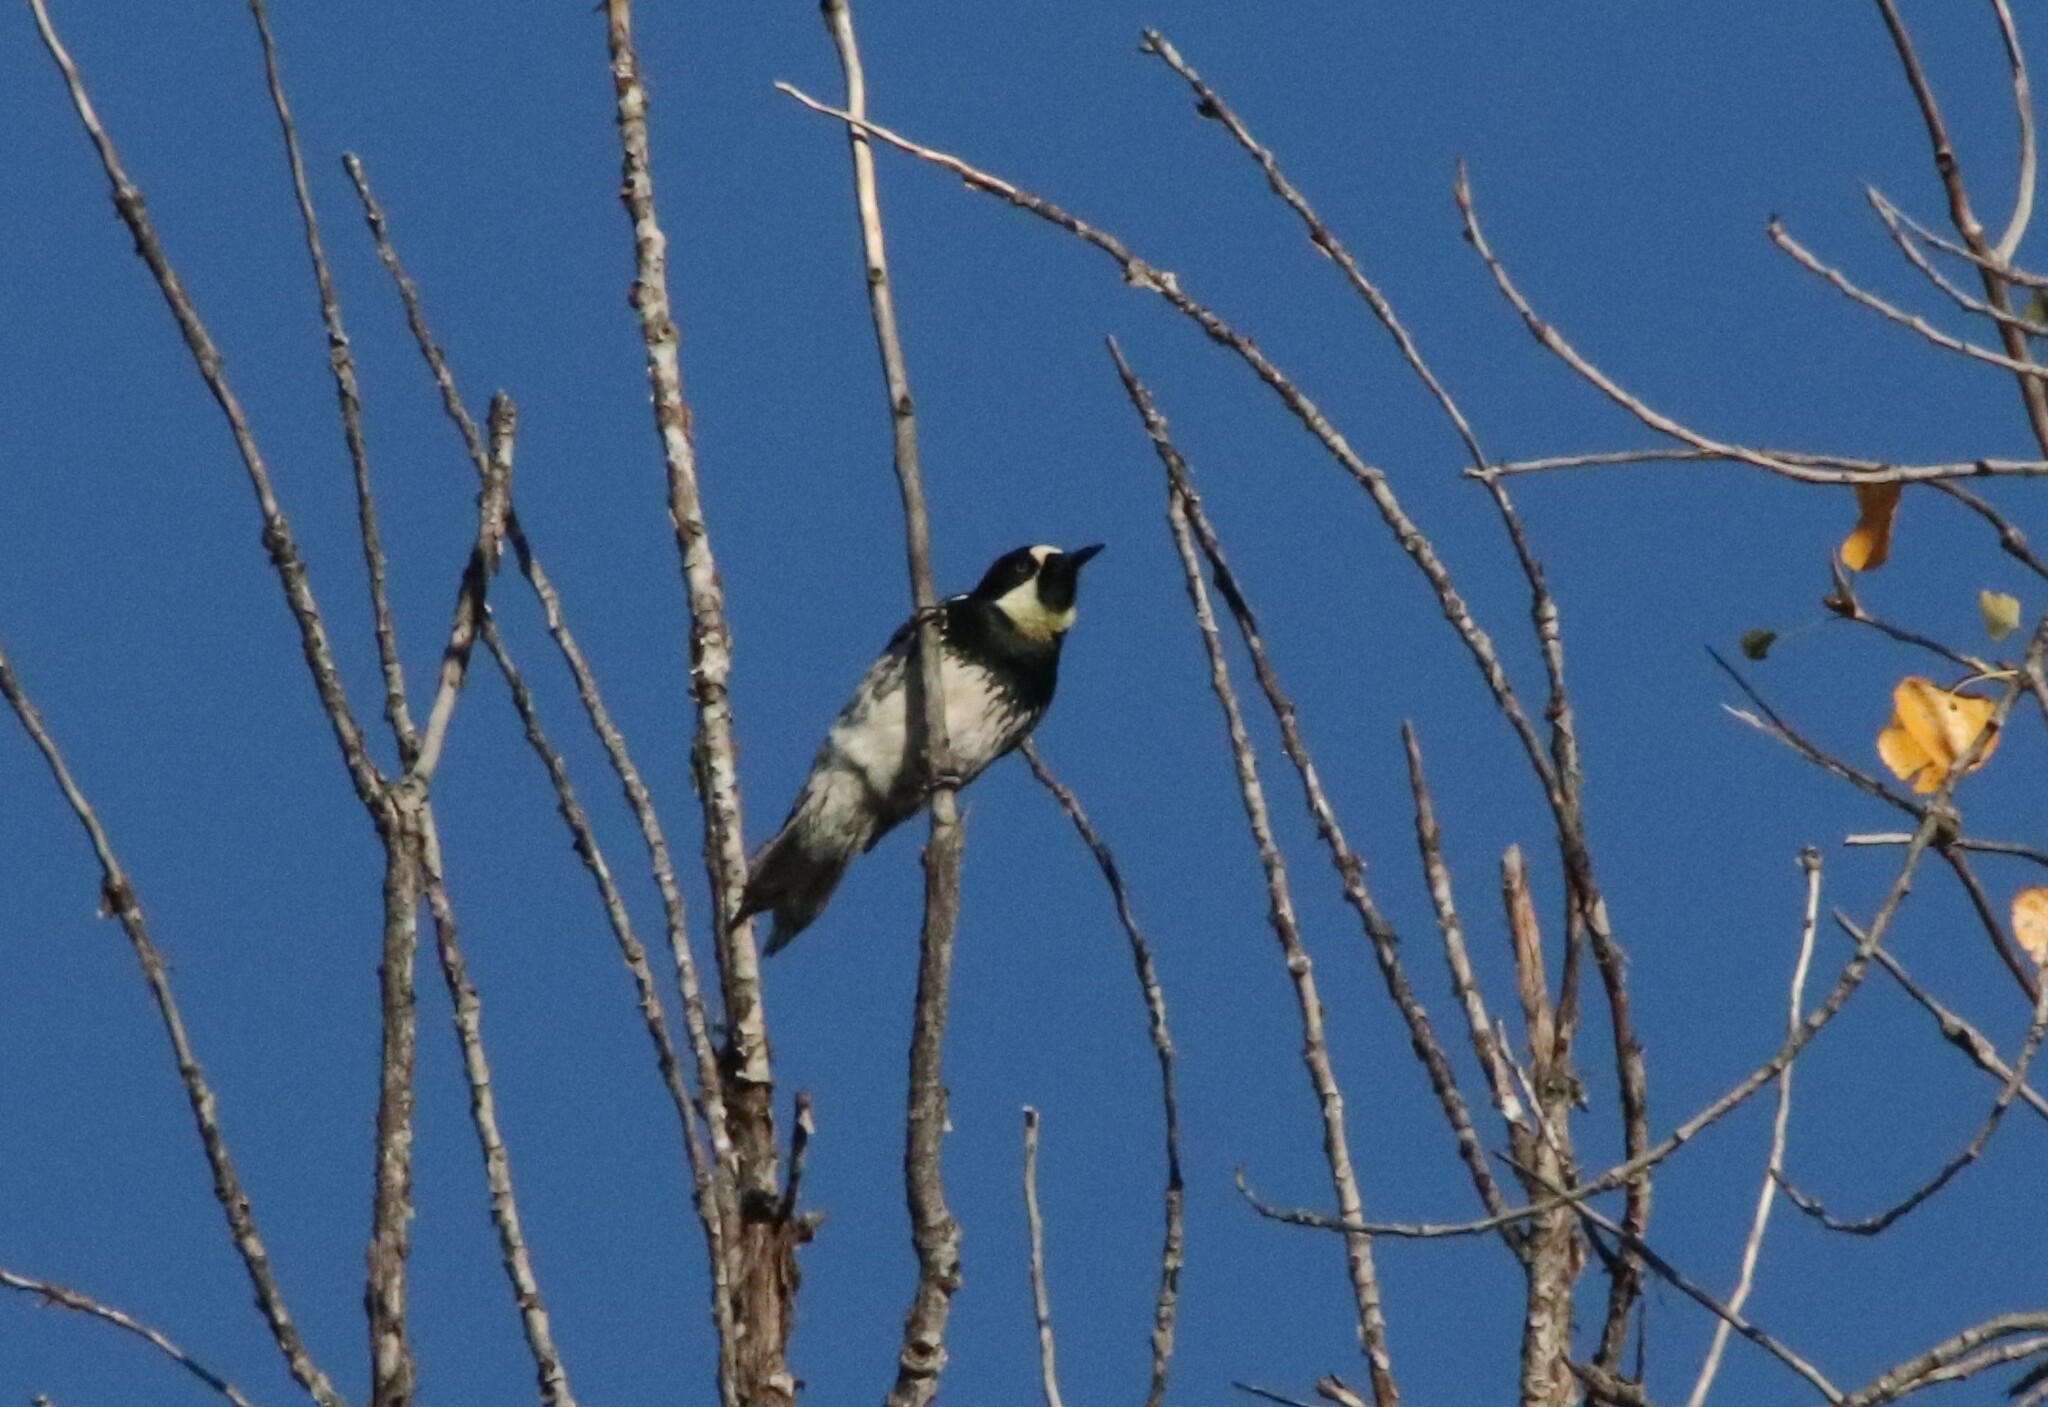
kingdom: Animalia
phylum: Chordata
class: Aves
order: Piciformes
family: Picidae
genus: Melanerpes
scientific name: Melanerpes formicivorus
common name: Acorn woodpecker
